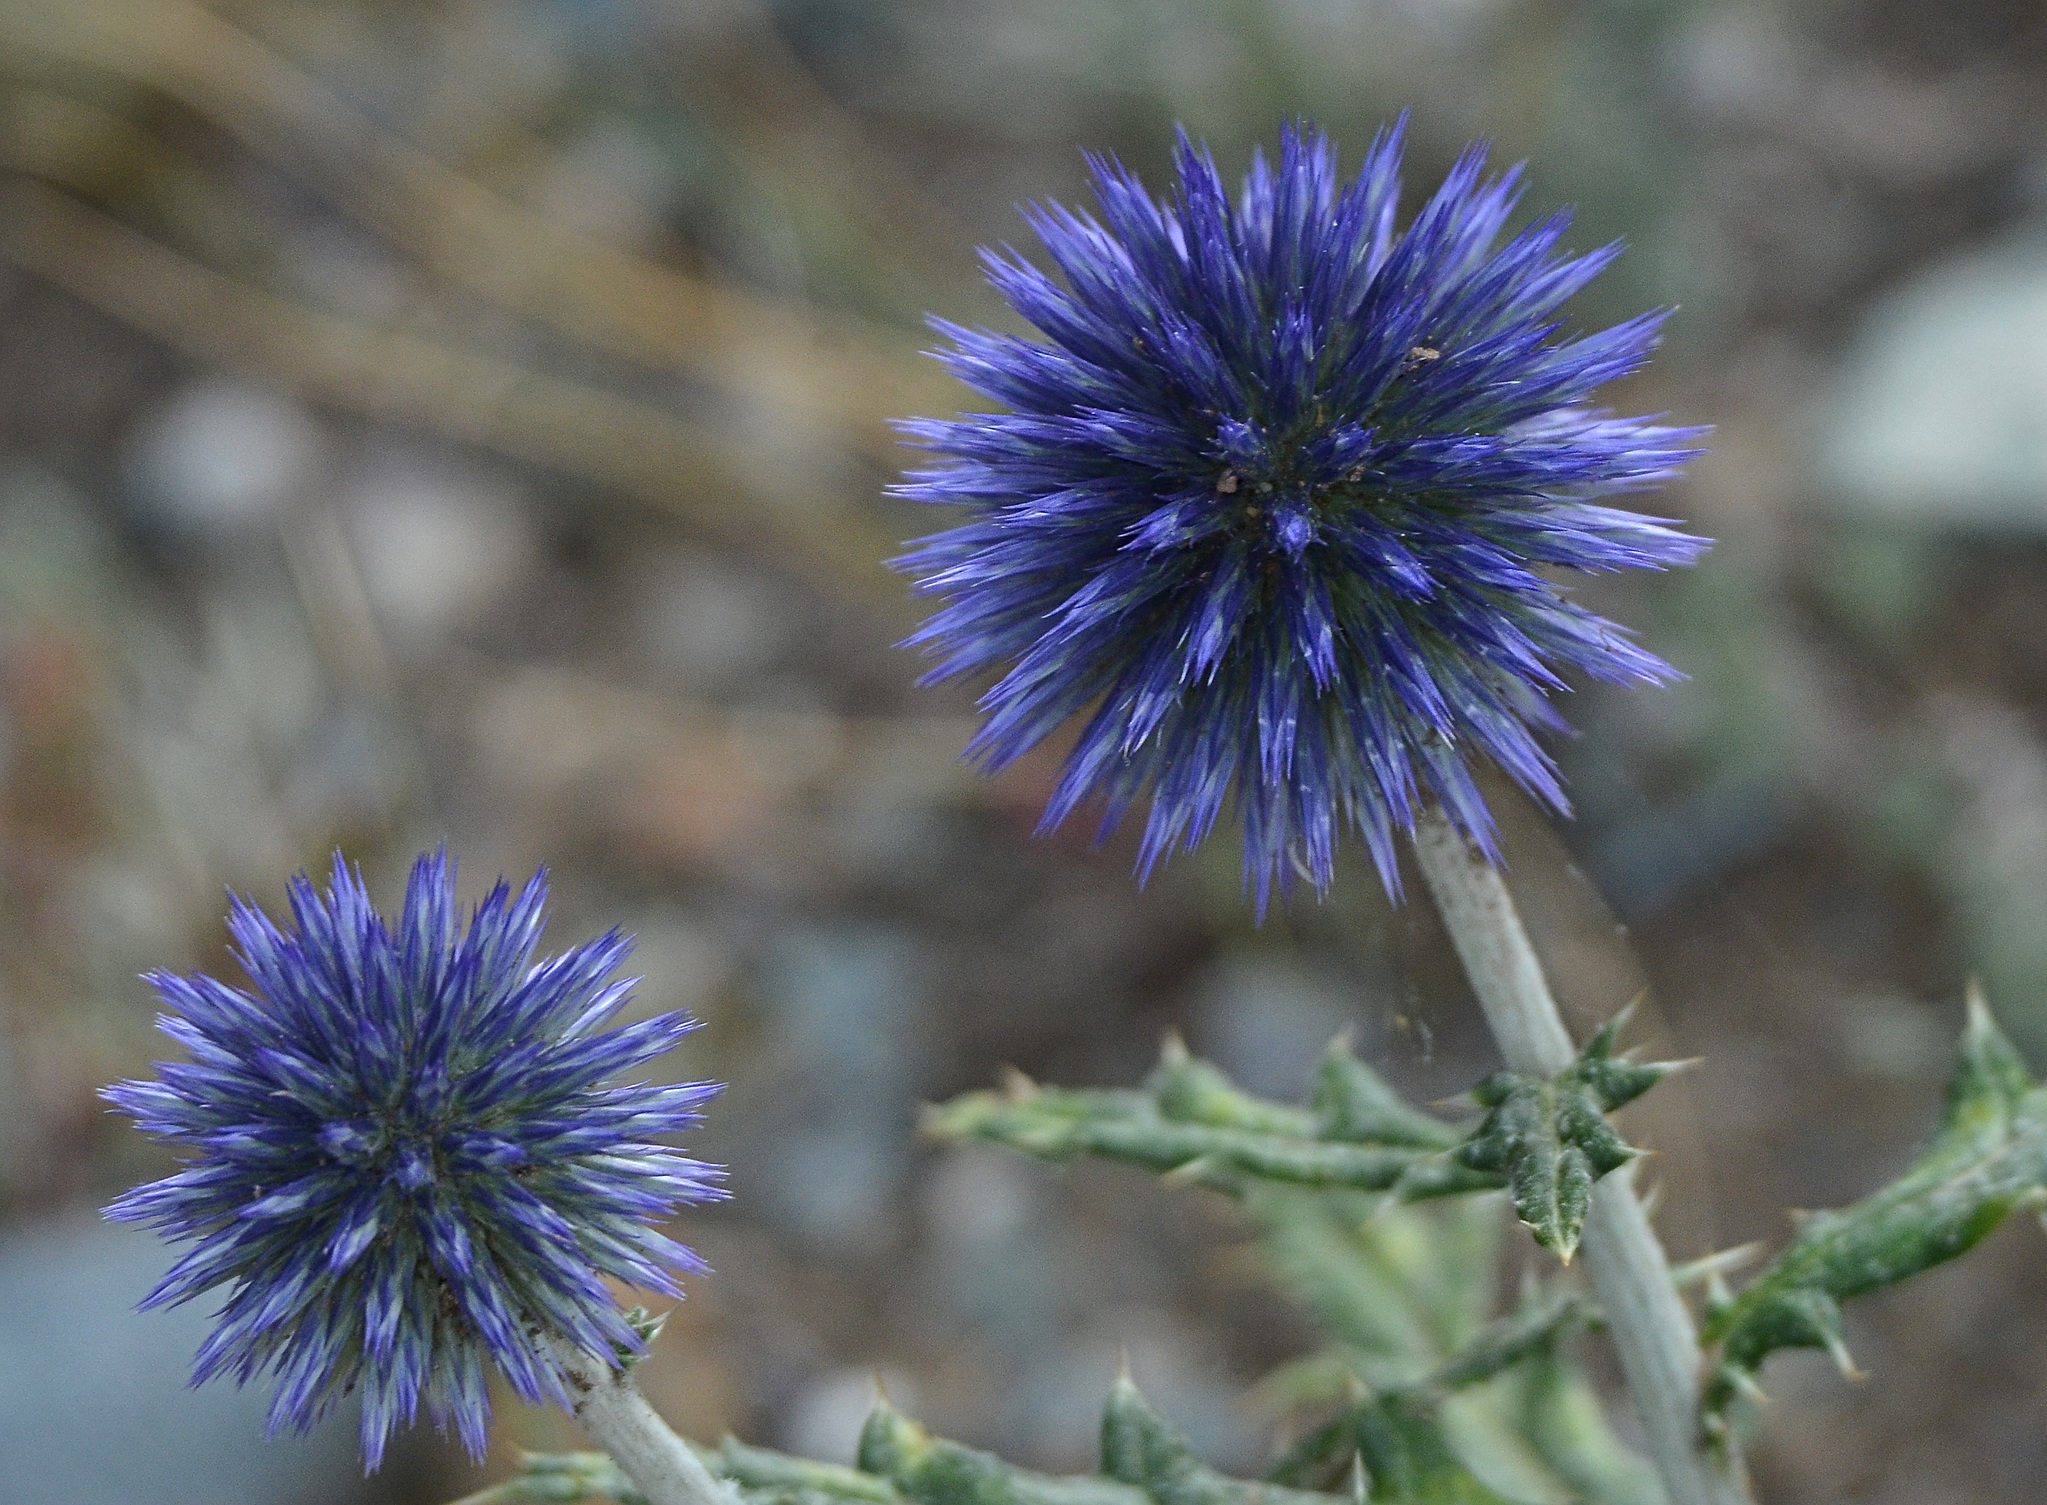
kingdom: Plantae
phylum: Tracheophyta
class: Magnoliopsida
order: Asterales
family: Asteraceae
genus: Echinops
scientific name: Echinops ritro
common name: Globe thistle
